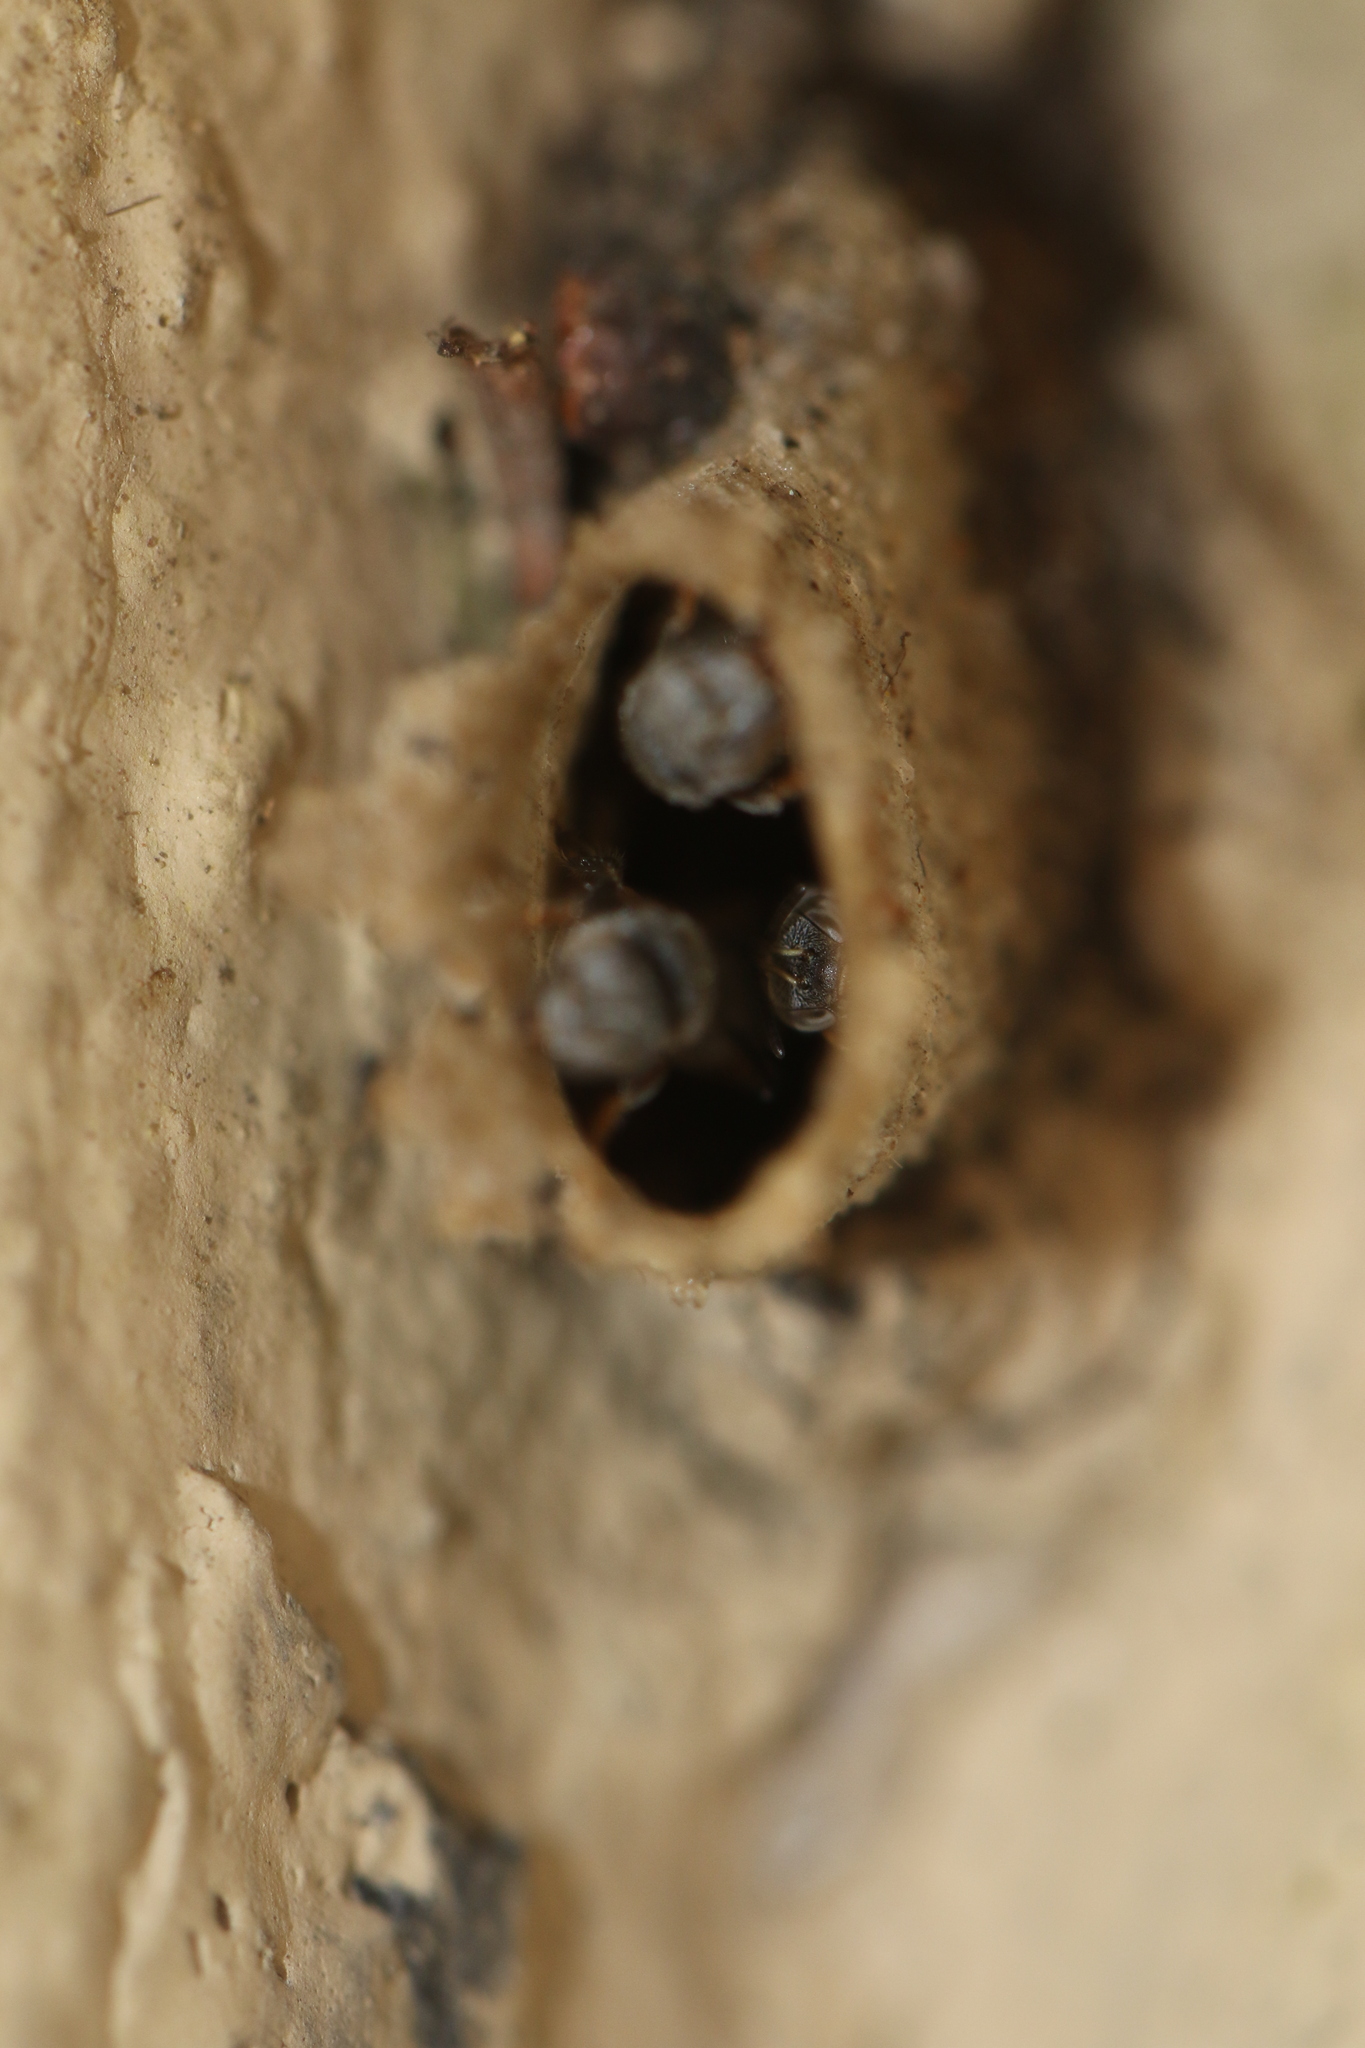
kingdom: Animalia
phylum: Arthropoda
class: Insecta
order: Hymenoptera
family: Apidae
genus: Friesella
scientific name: Friesella schrottkyi
